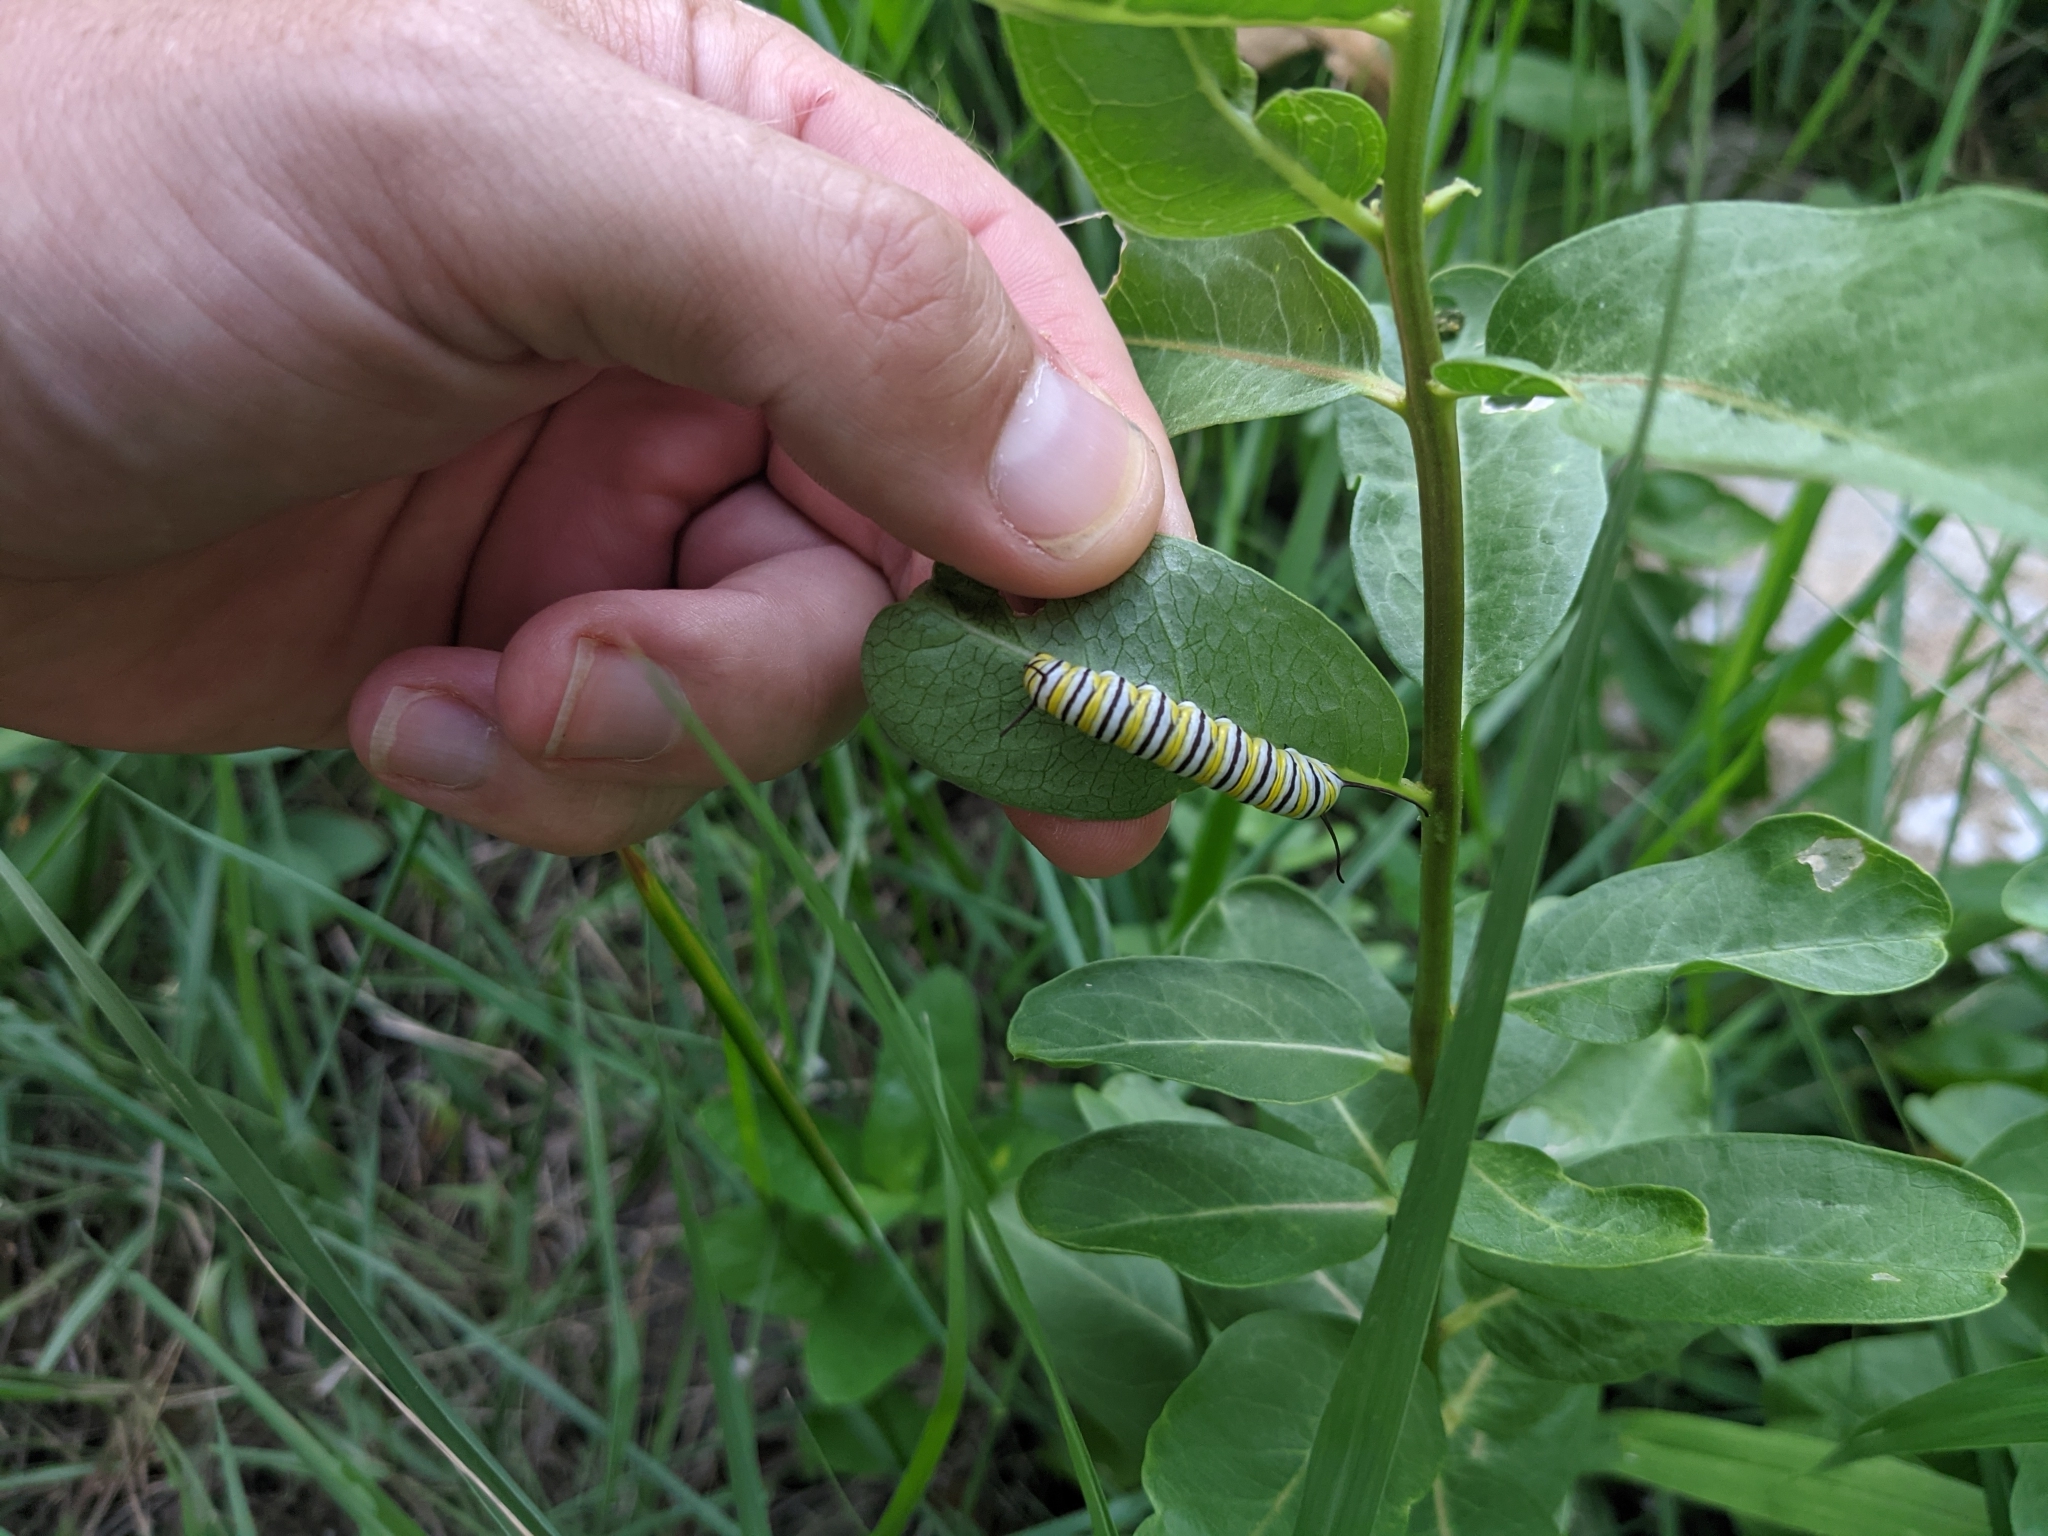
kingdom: Animalia
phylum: Arthropoda
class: Insecta
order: Lepidoptera
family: Nymphalidae
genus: Danaus
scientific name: Danaus plexippus
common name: Monarch
